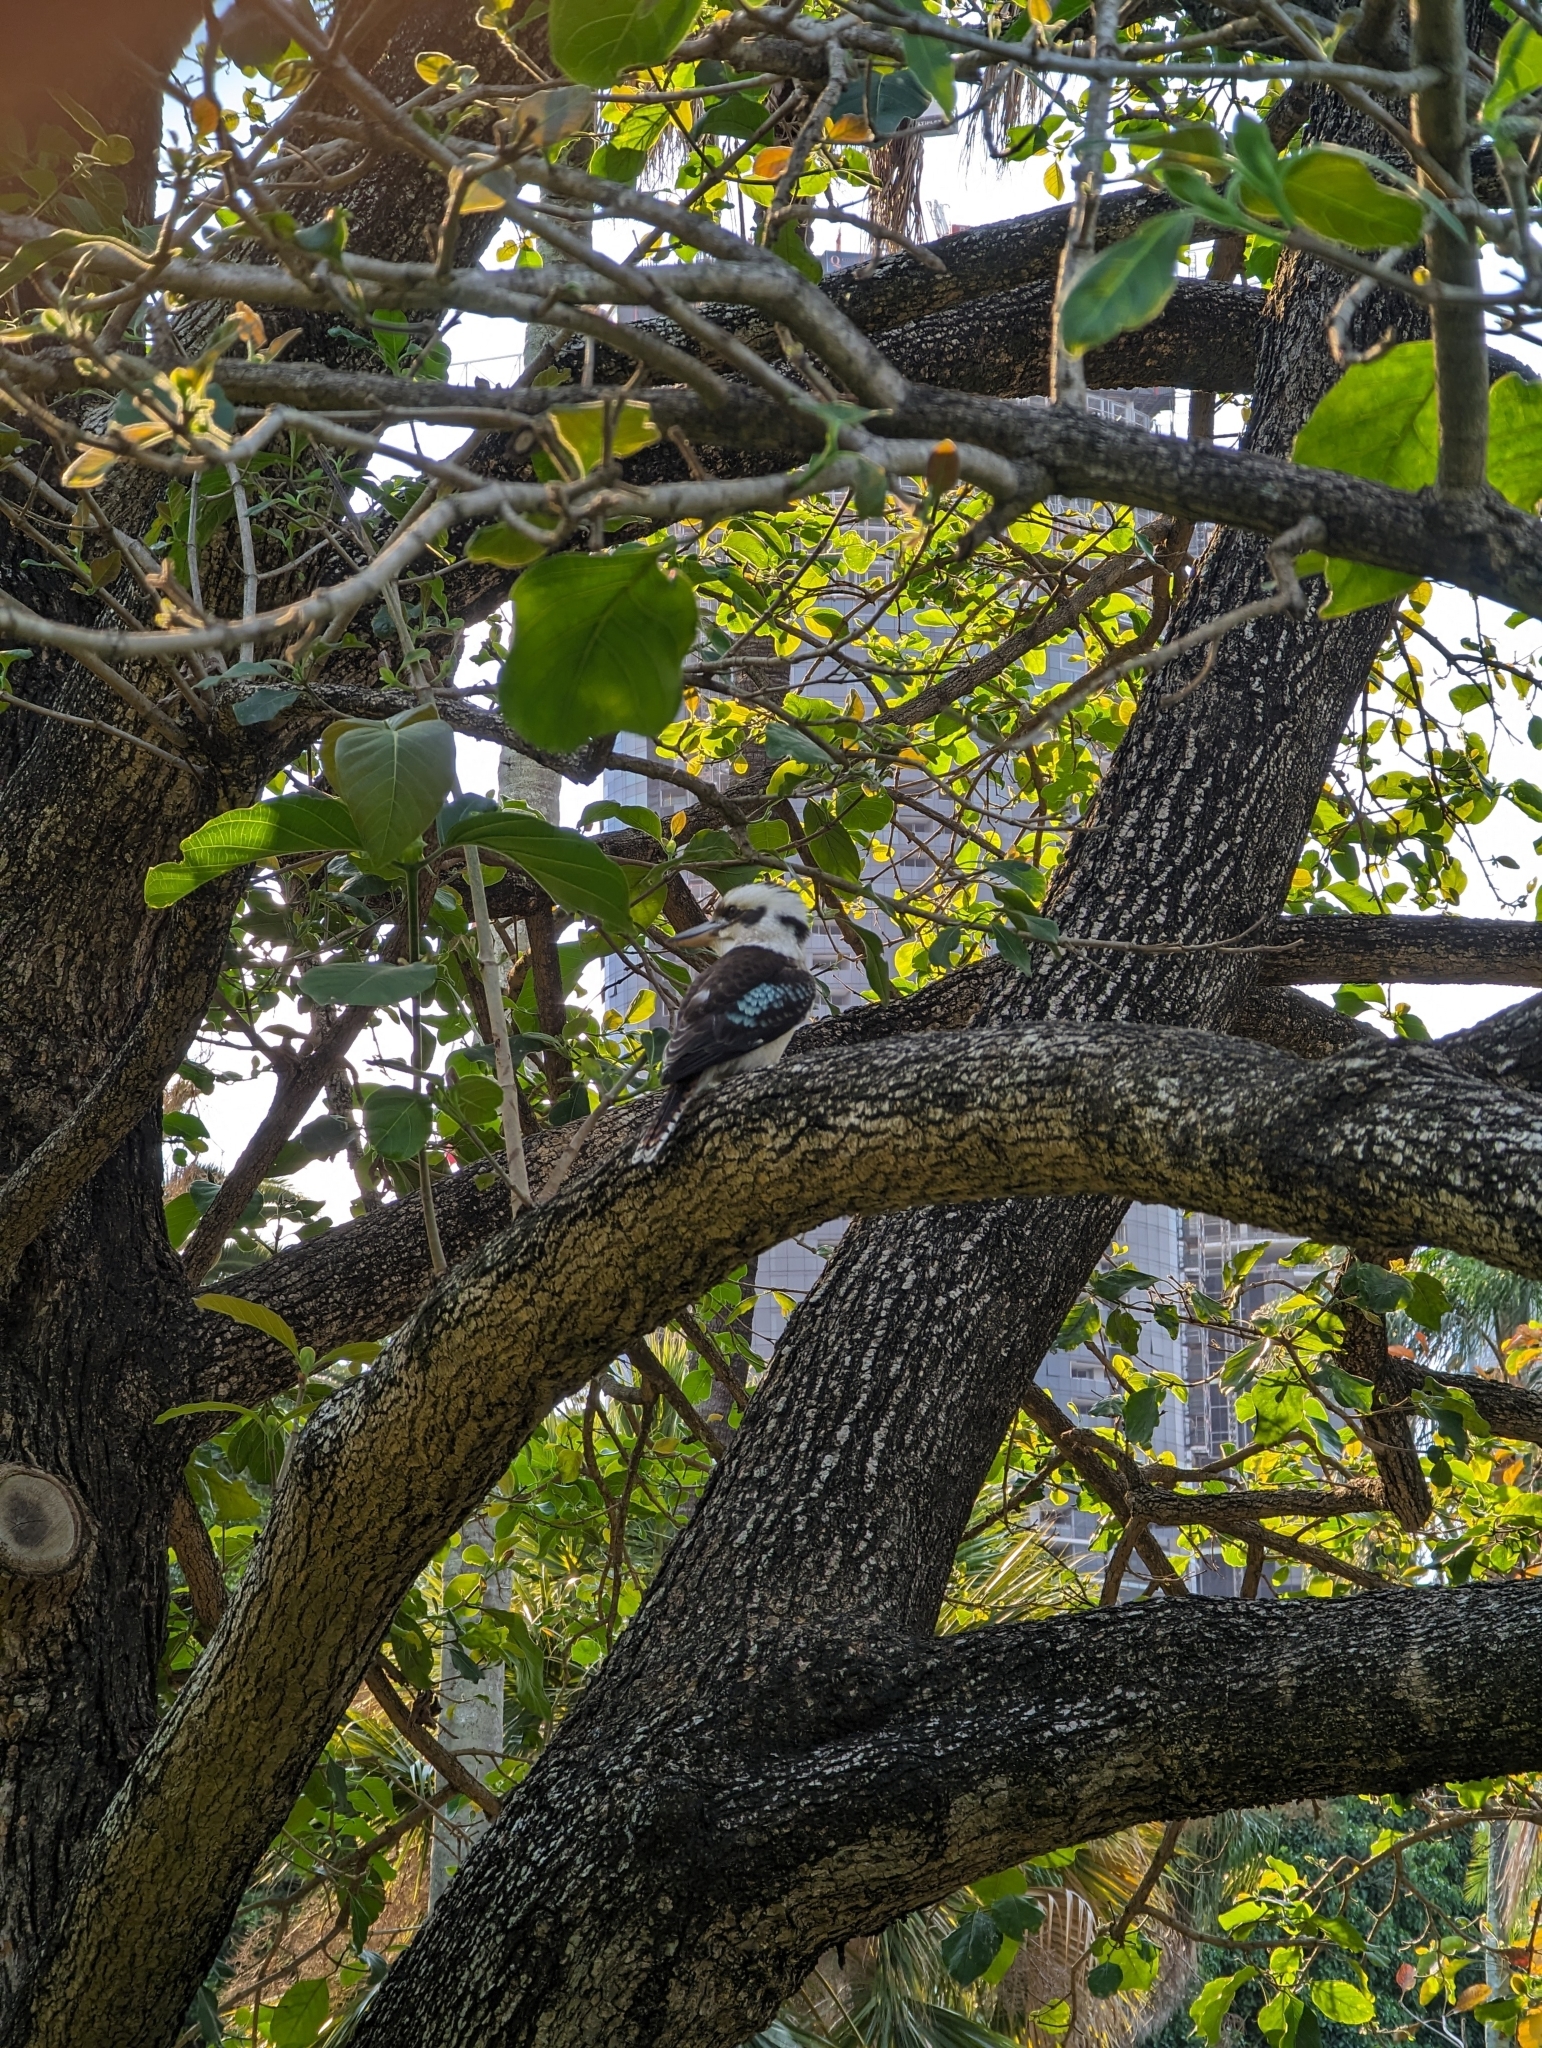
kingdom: Animalia
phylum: Chordata
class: Aves
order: Coraciiformes
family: Alcedinidae
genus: Dacelo
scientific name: Dacelo novaeguineae
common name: Laughing kookaburra
